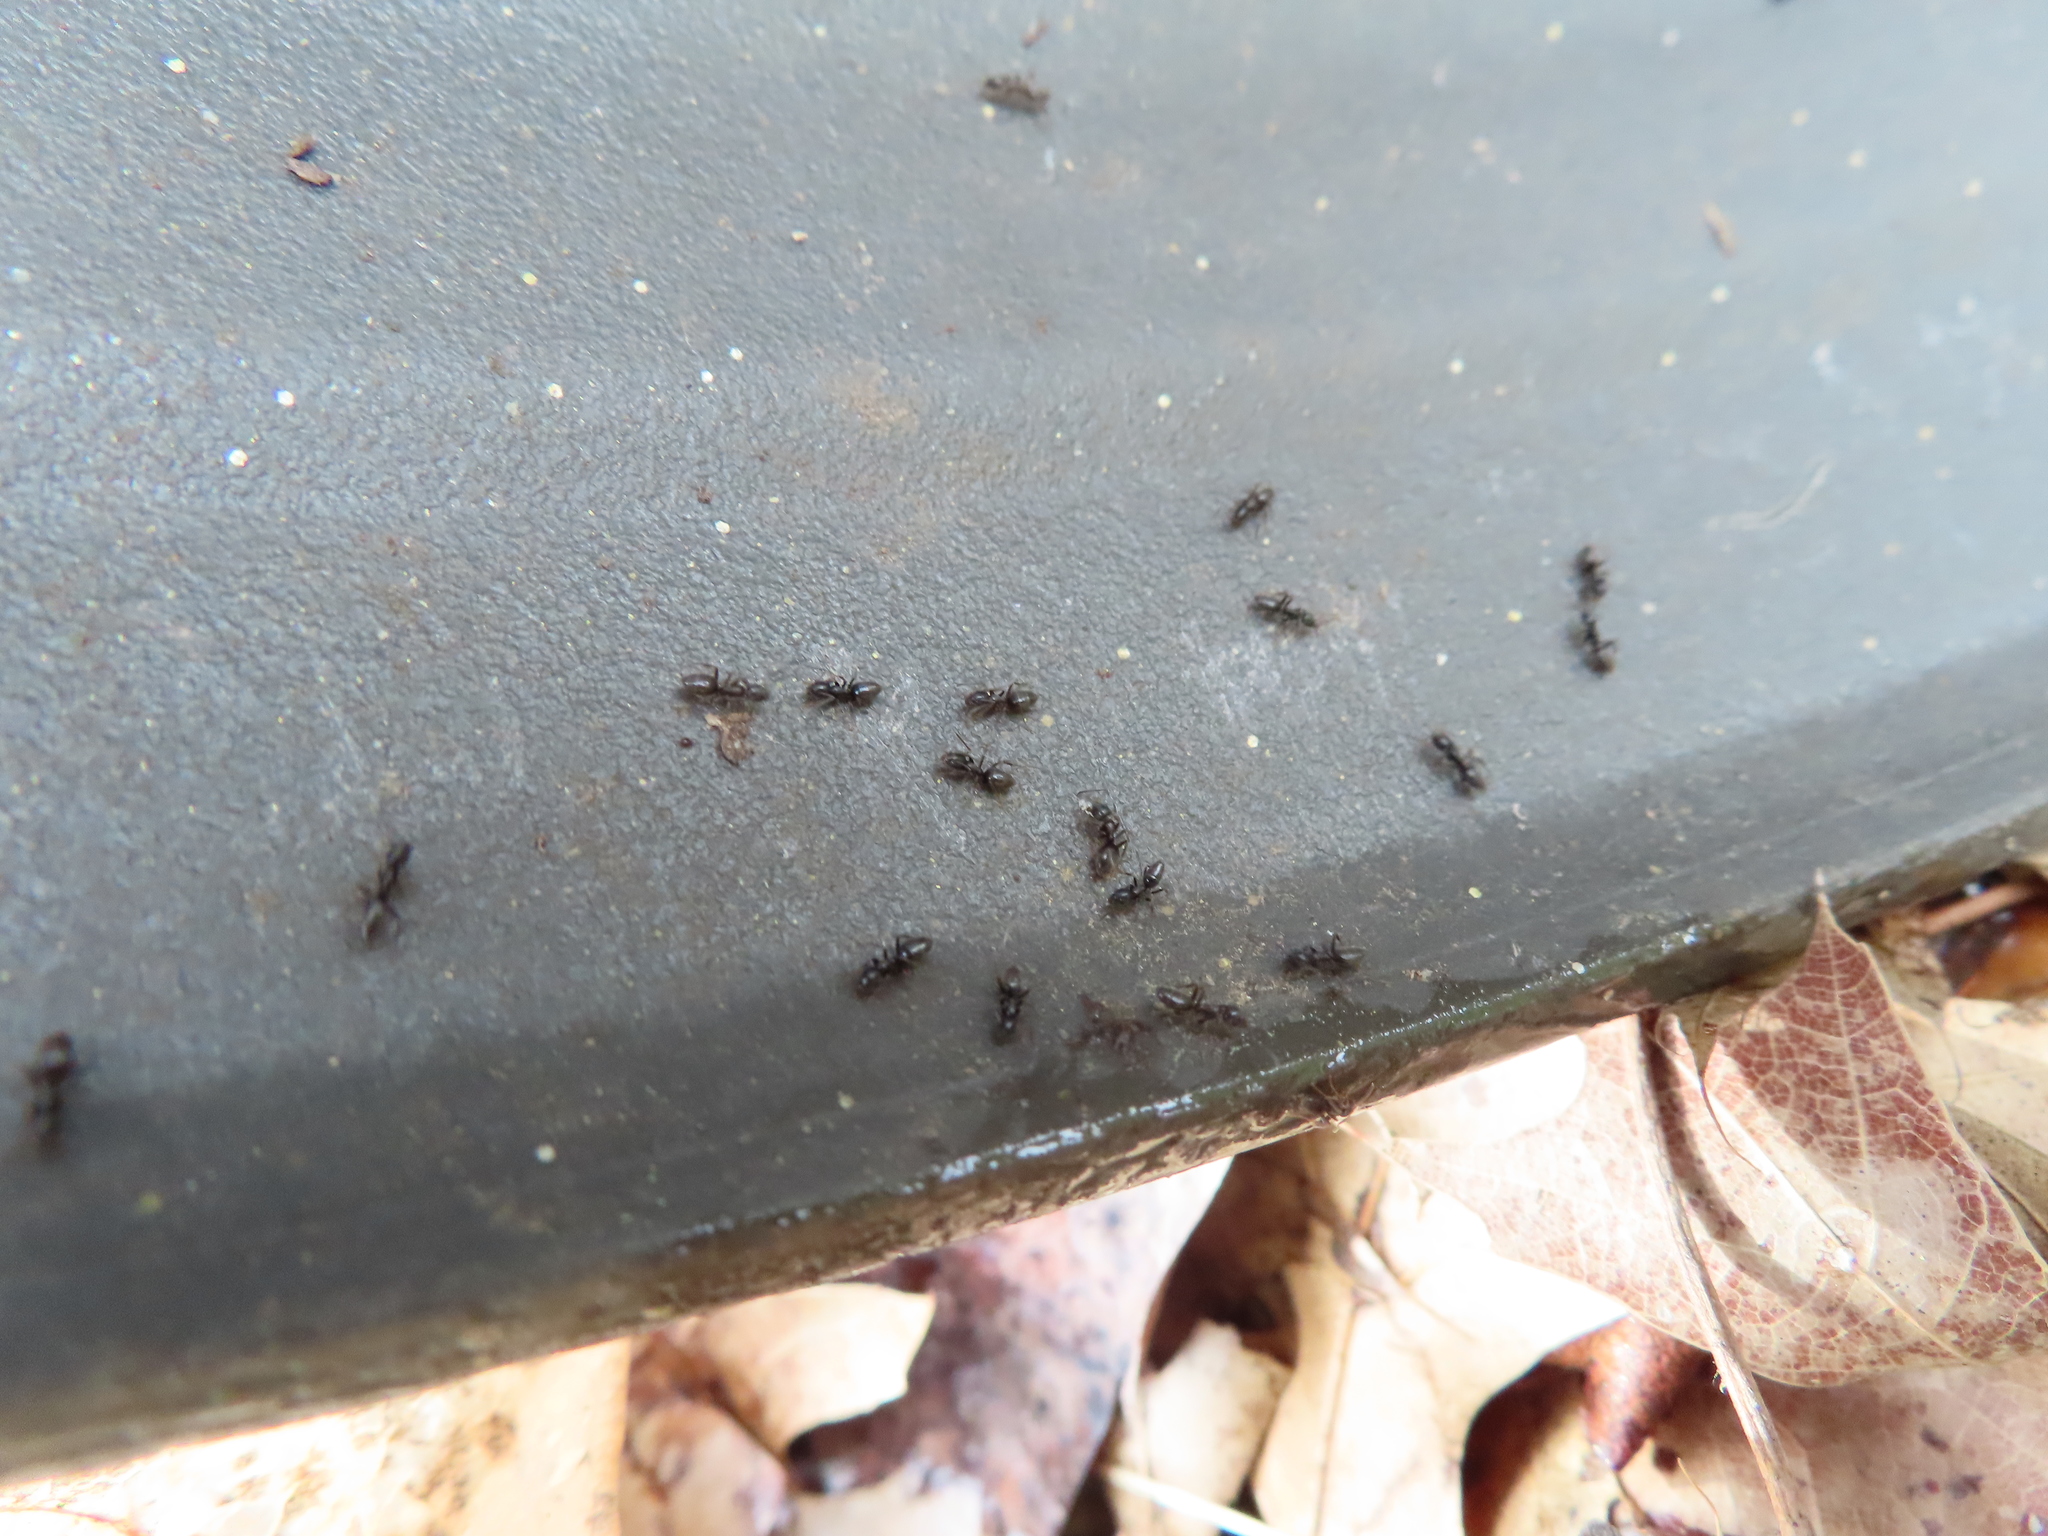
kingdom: Animalia
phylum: Arthropoda
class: Insecta
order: Hymenoptera
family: Formicidae
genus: Tapinoma
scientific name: Tapinoma sessile
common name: Odorous house ant
